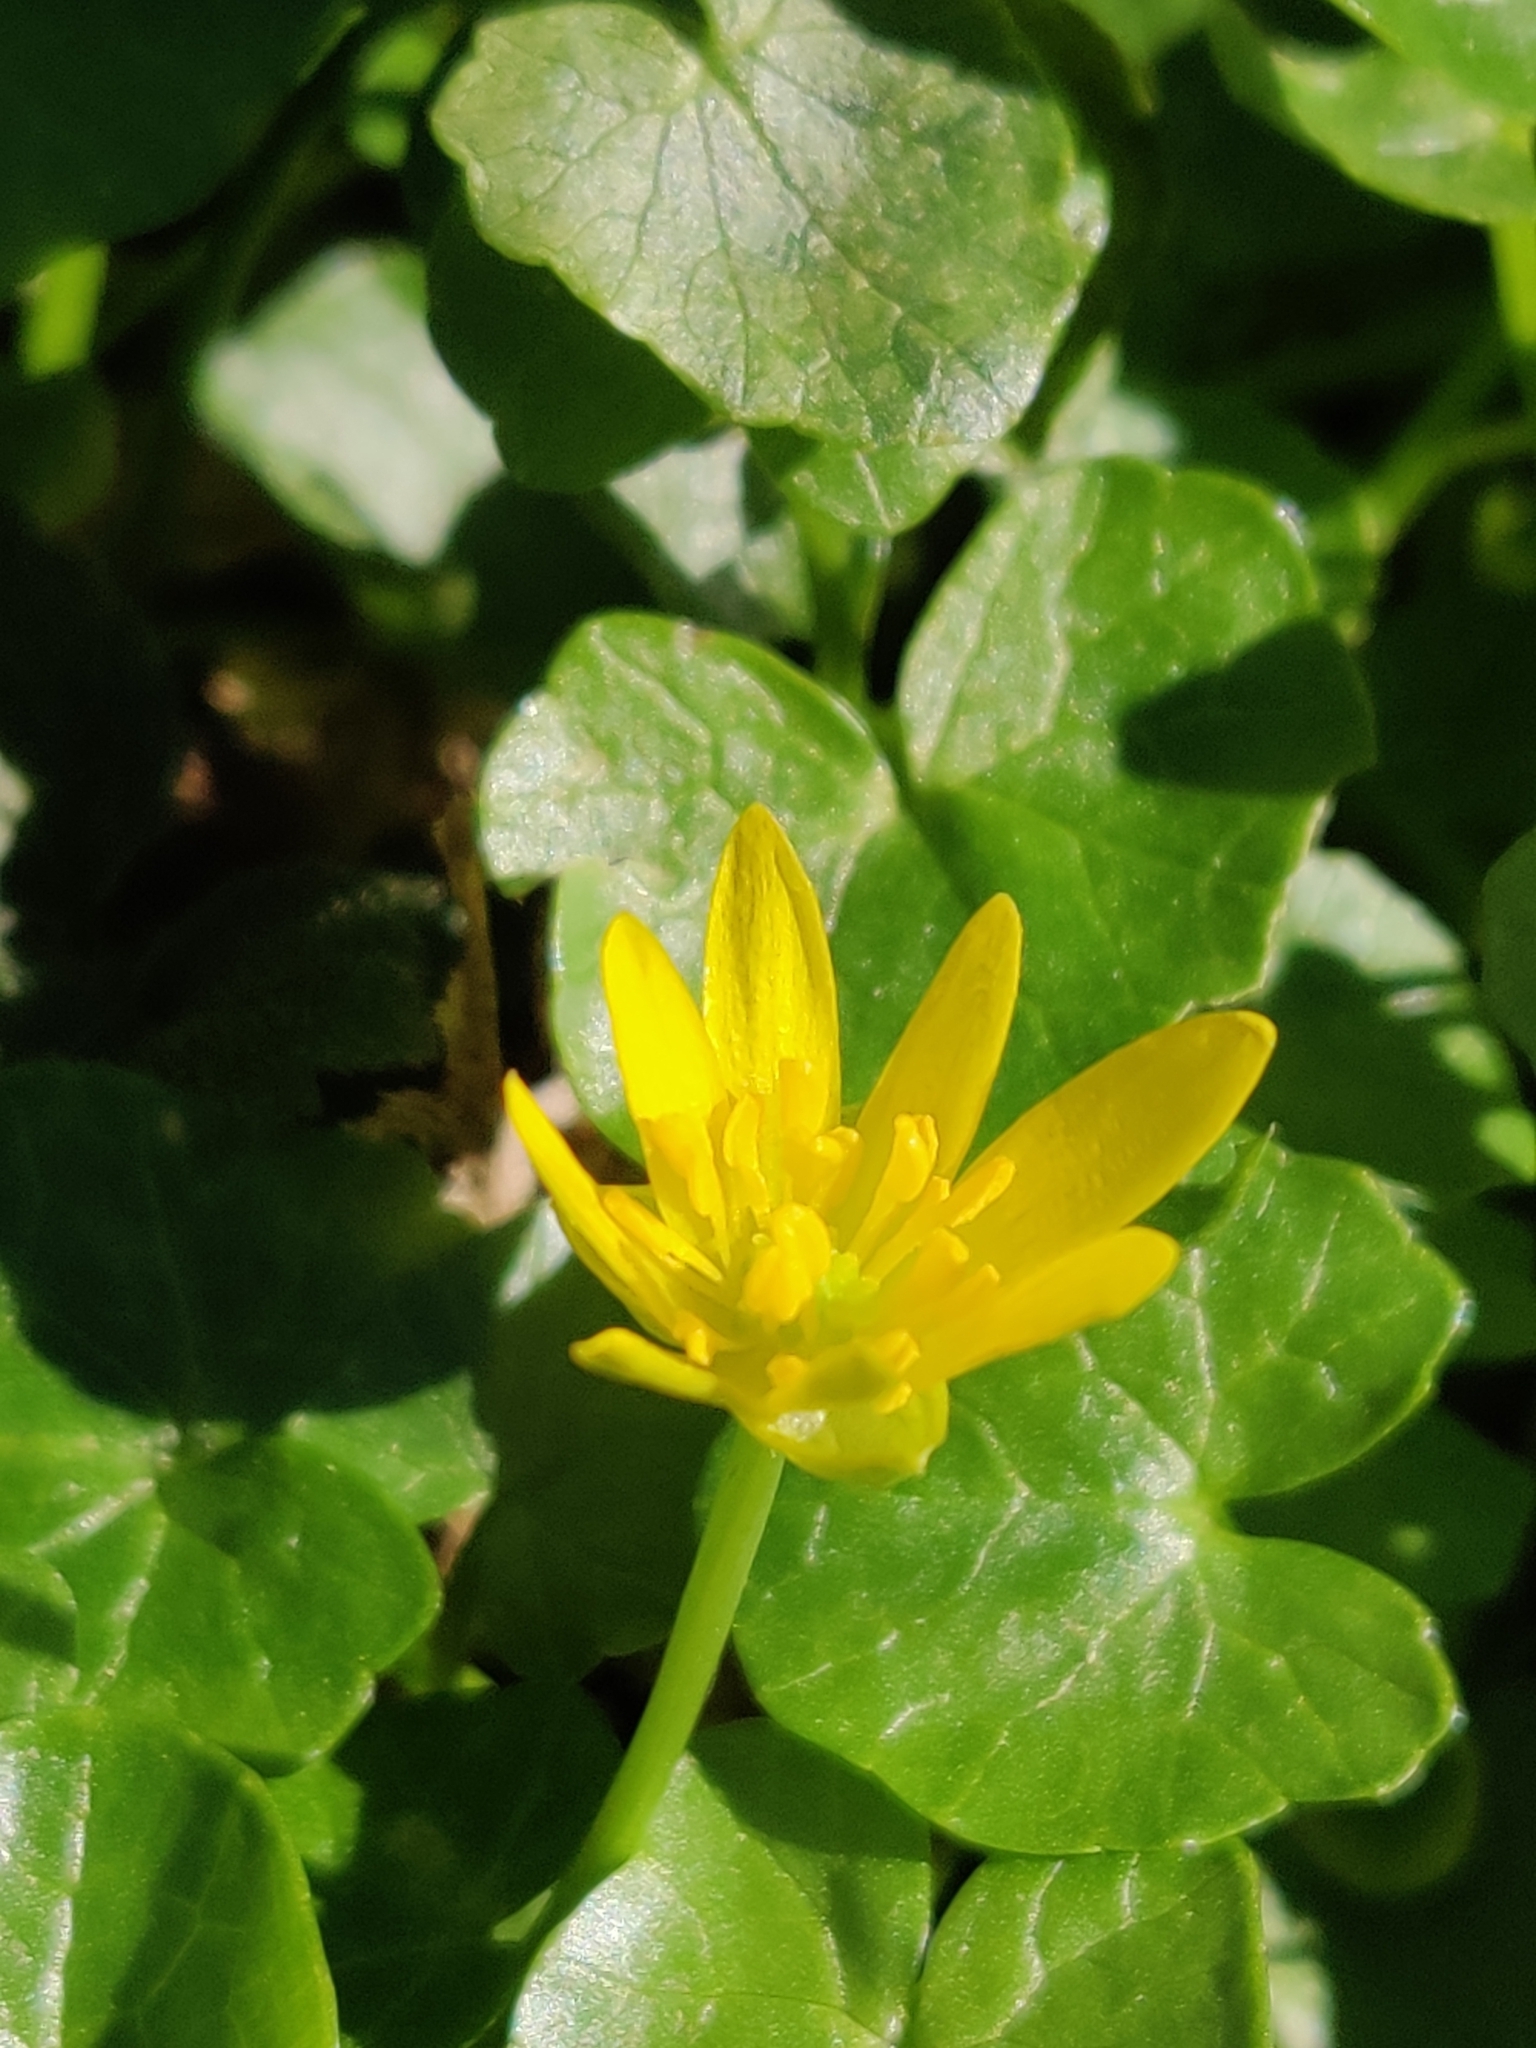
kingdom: Plantae
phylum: Tracheophyta
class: Magnoliopsida
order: Ranunculales
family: Ranunculaceae
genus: Ficaria
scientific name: Ficaria verna
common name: Lesser celandine
